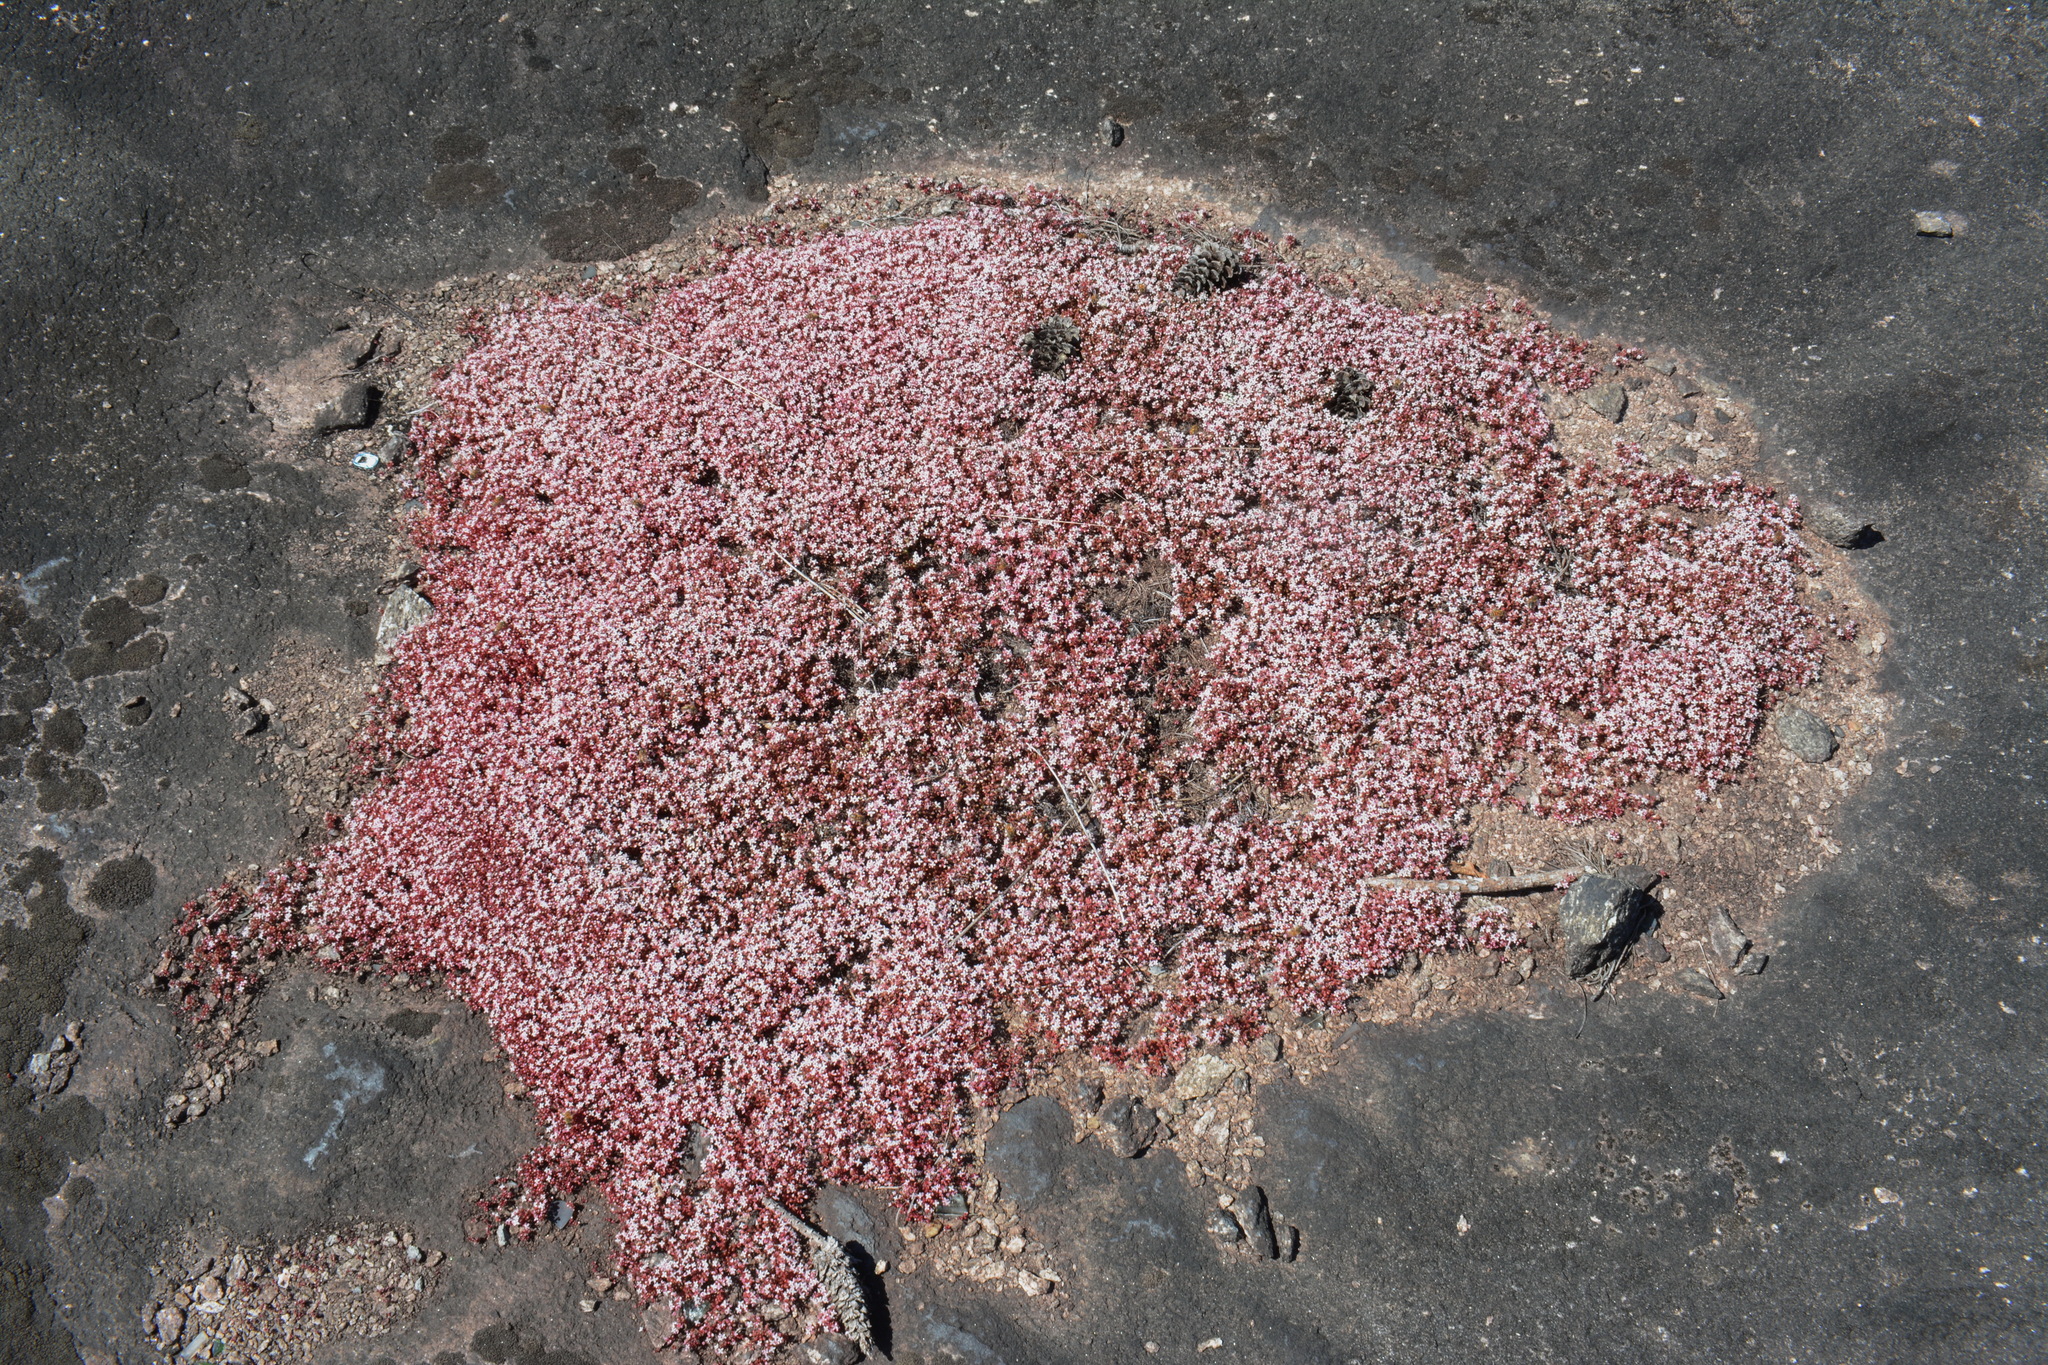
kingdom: Plantae
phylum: Tracheophyta
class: Magnoliopsida
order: Saxifragales
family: Crassulaceae
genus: Sedum
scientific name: Sedum smallii
